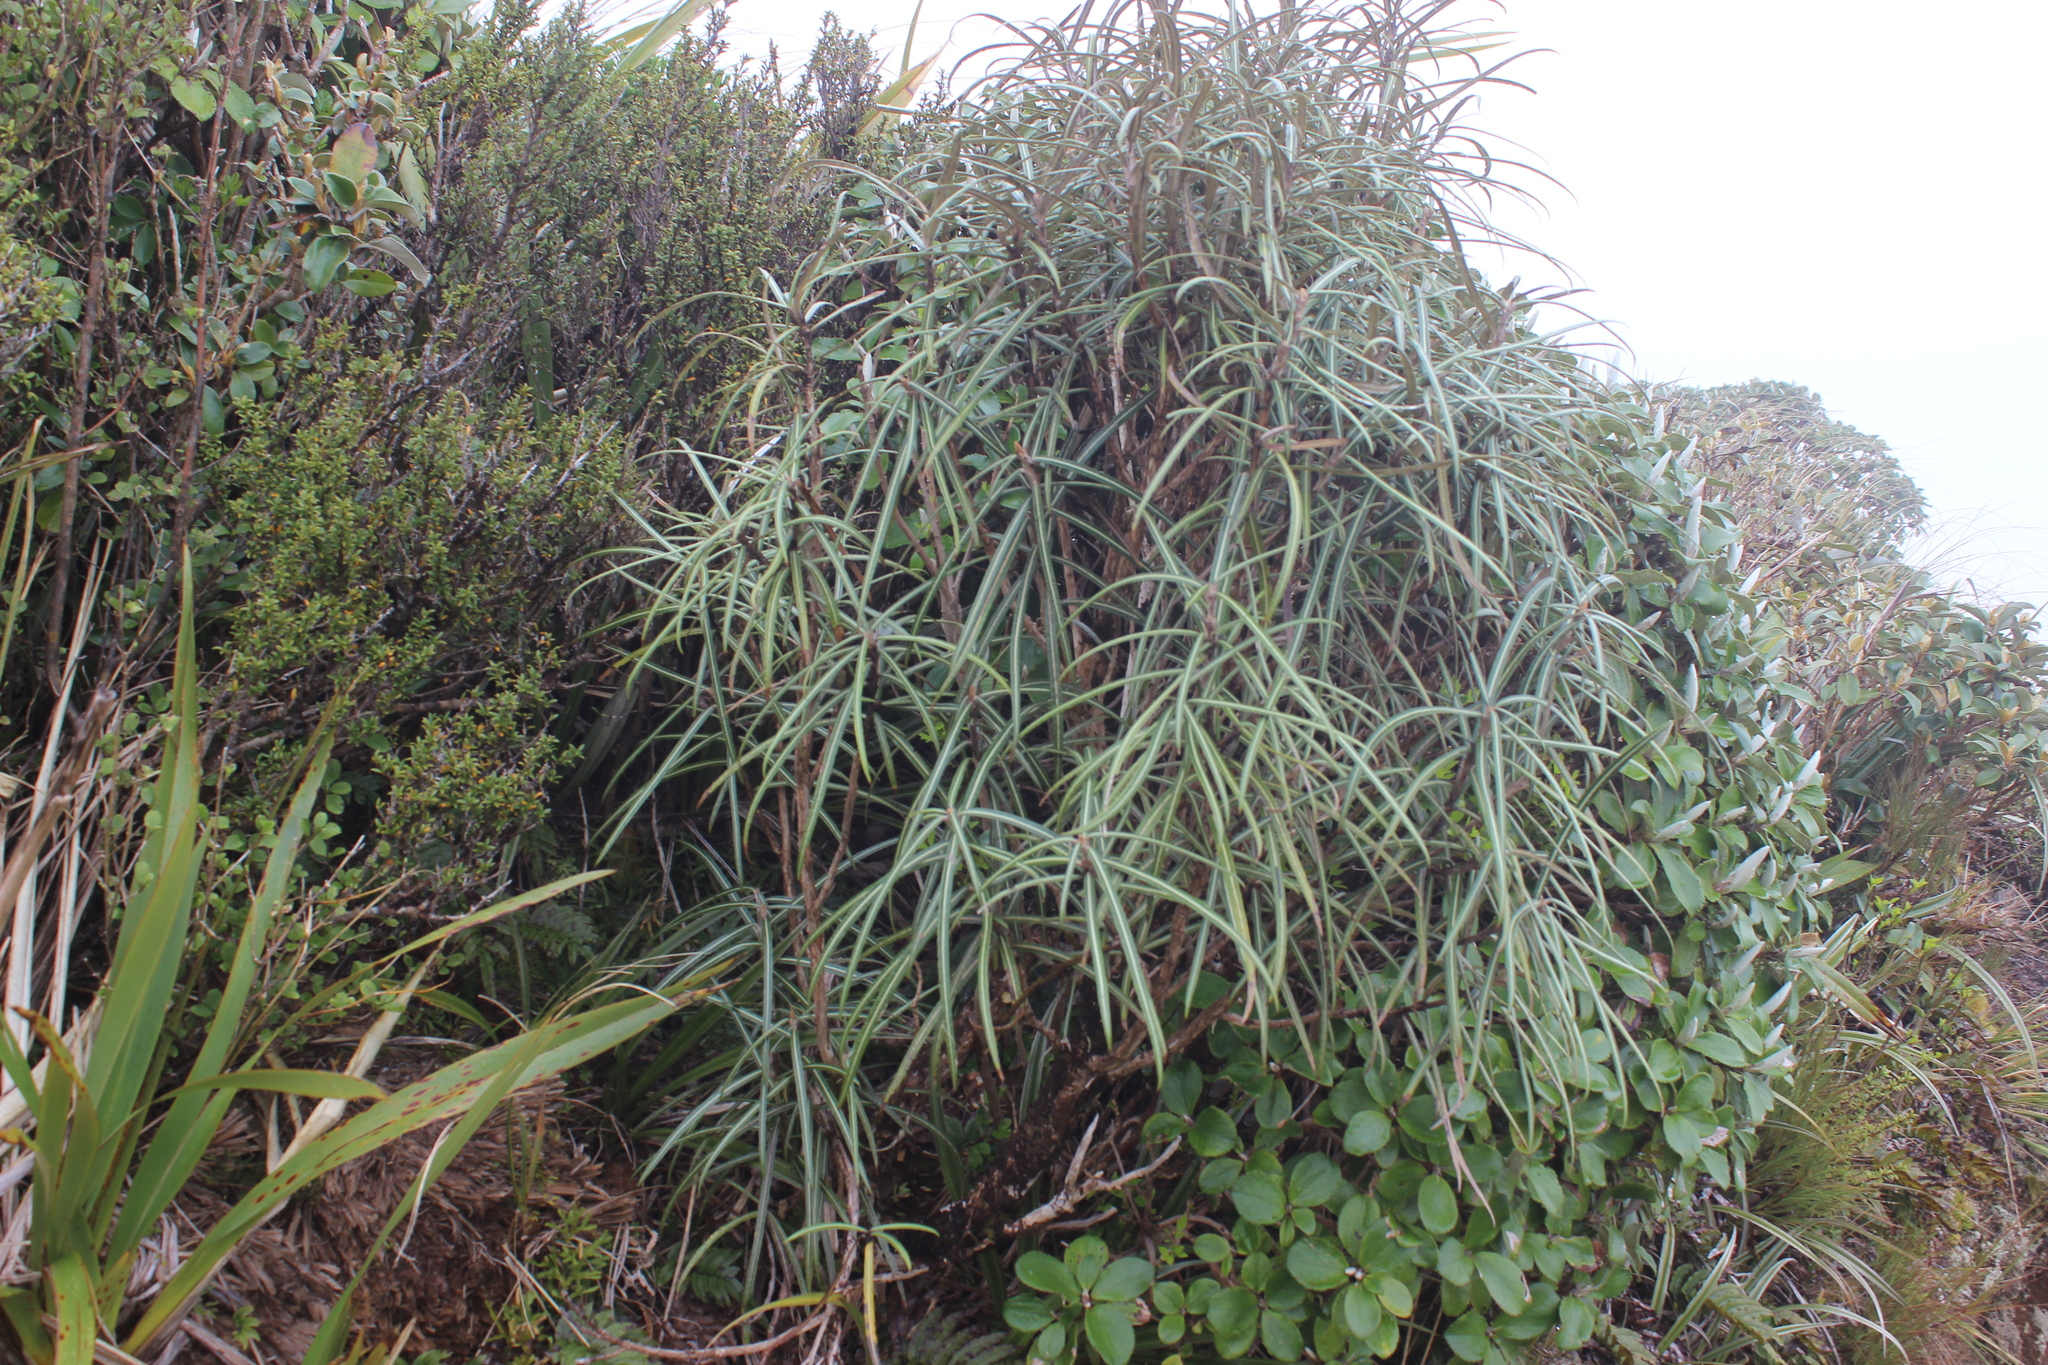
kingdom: Plantae
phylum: Tracheophyta
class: Magnoliopsida
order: Asterales
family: Asteraceae
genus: Olearia
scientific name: Olearia lacunosa
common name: Lancewood tree daisy
